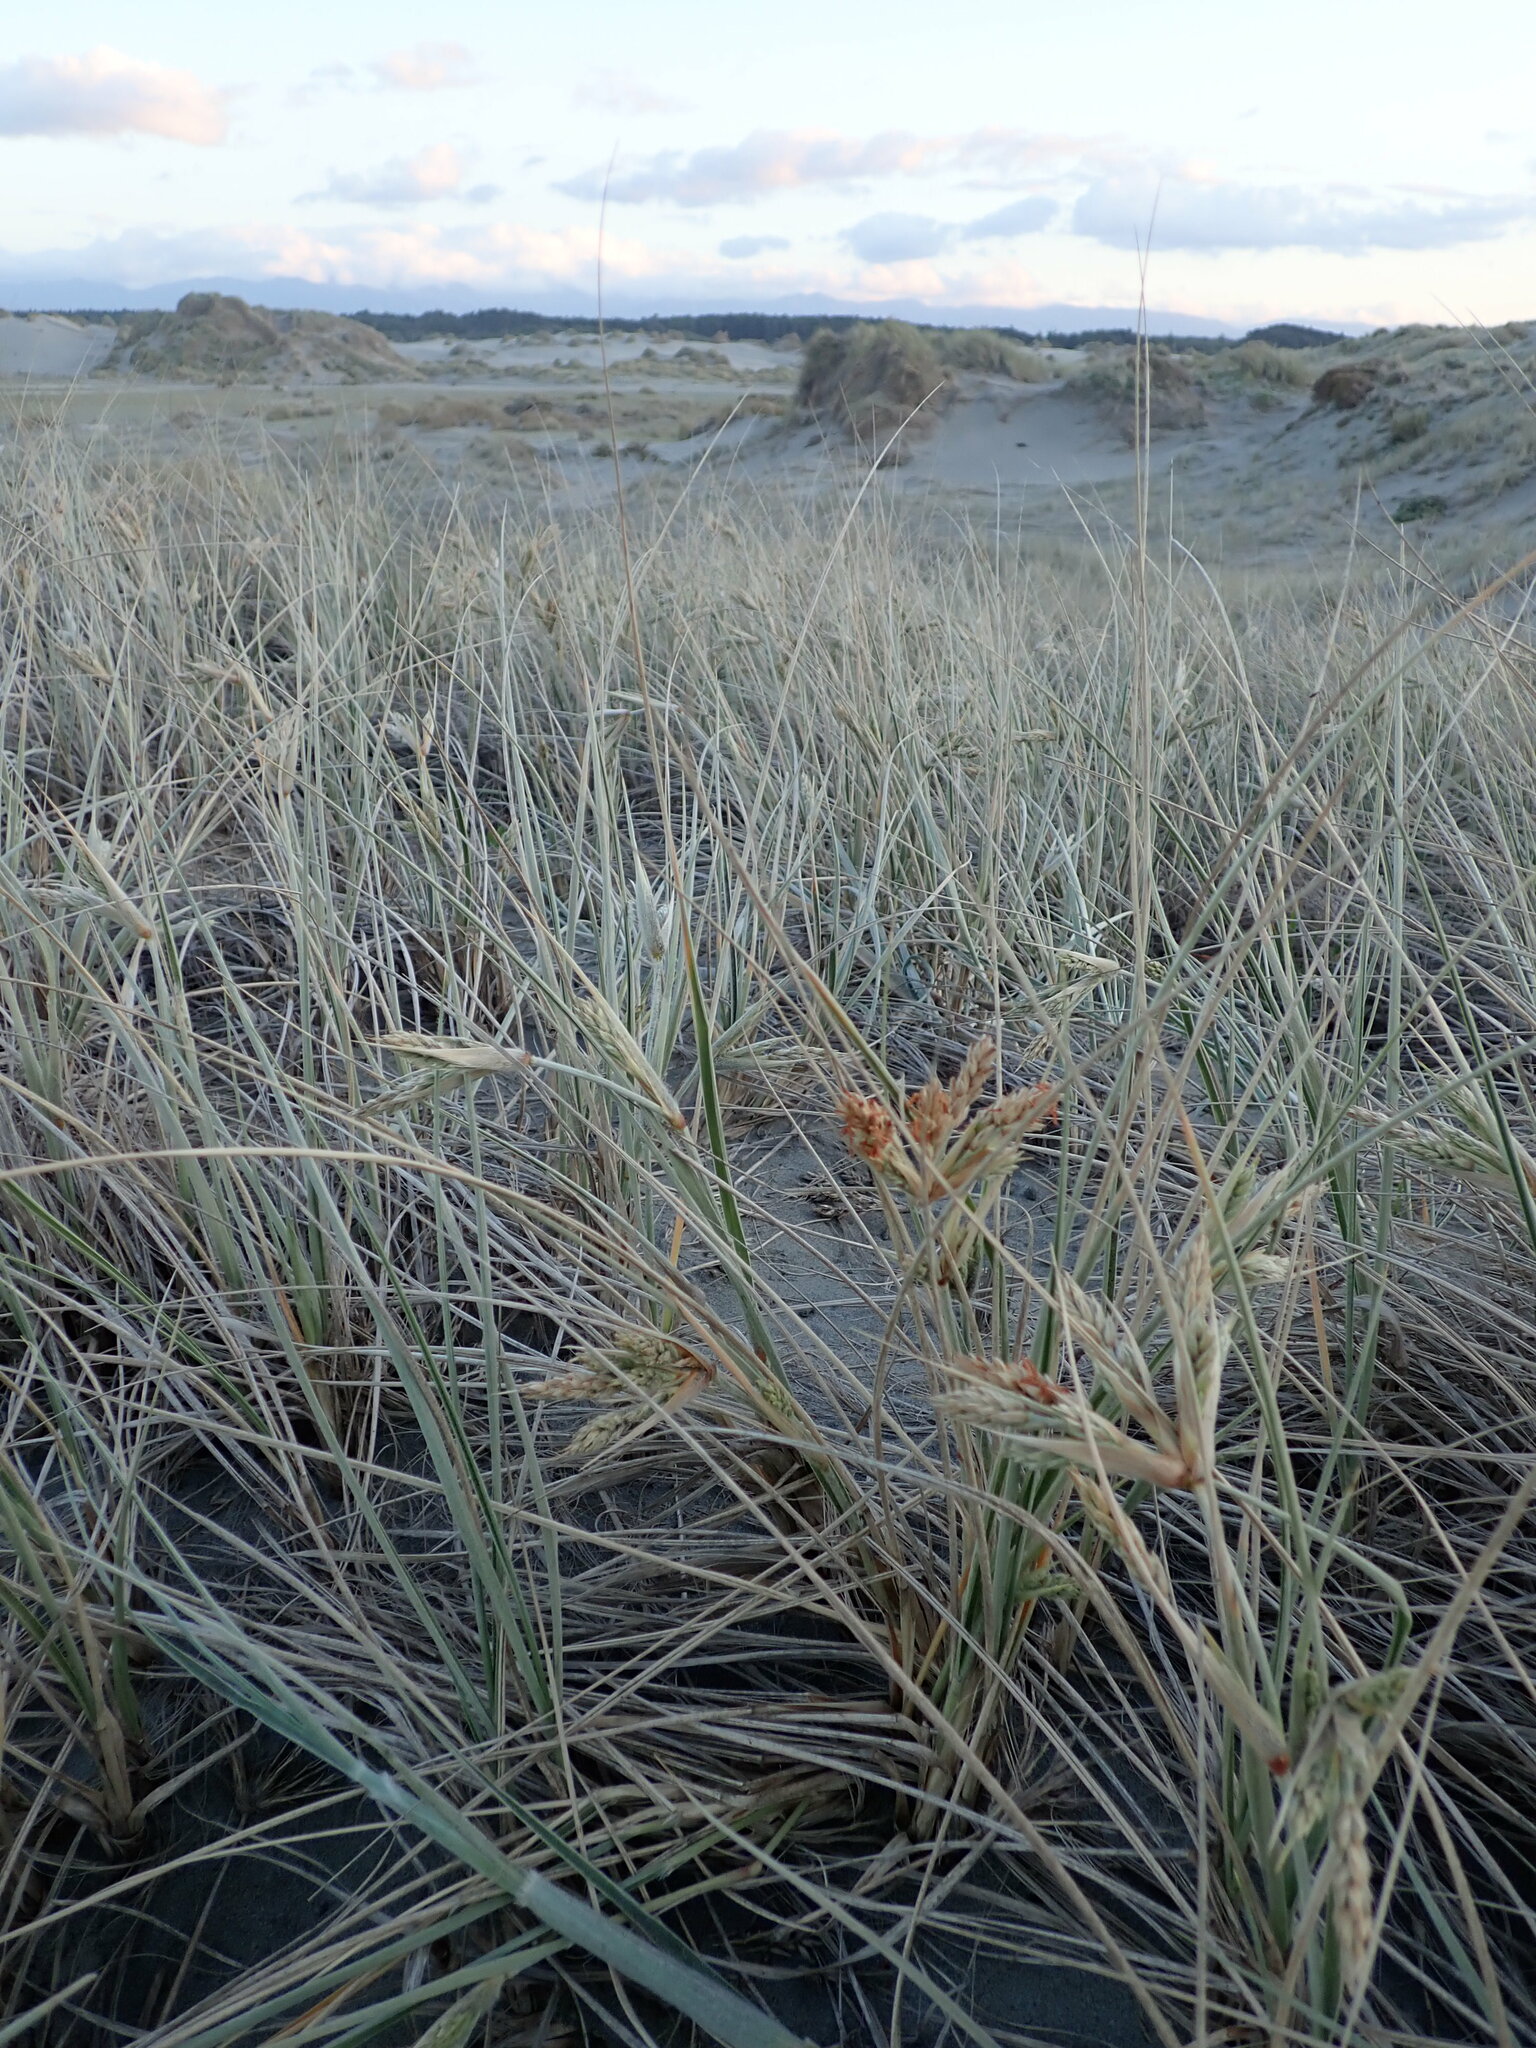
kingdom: Plantae
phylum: Tracheophyta
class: Liliopsida
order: Poales
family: Poaceae
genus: Spinifex
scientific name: Spinifex sericeus
